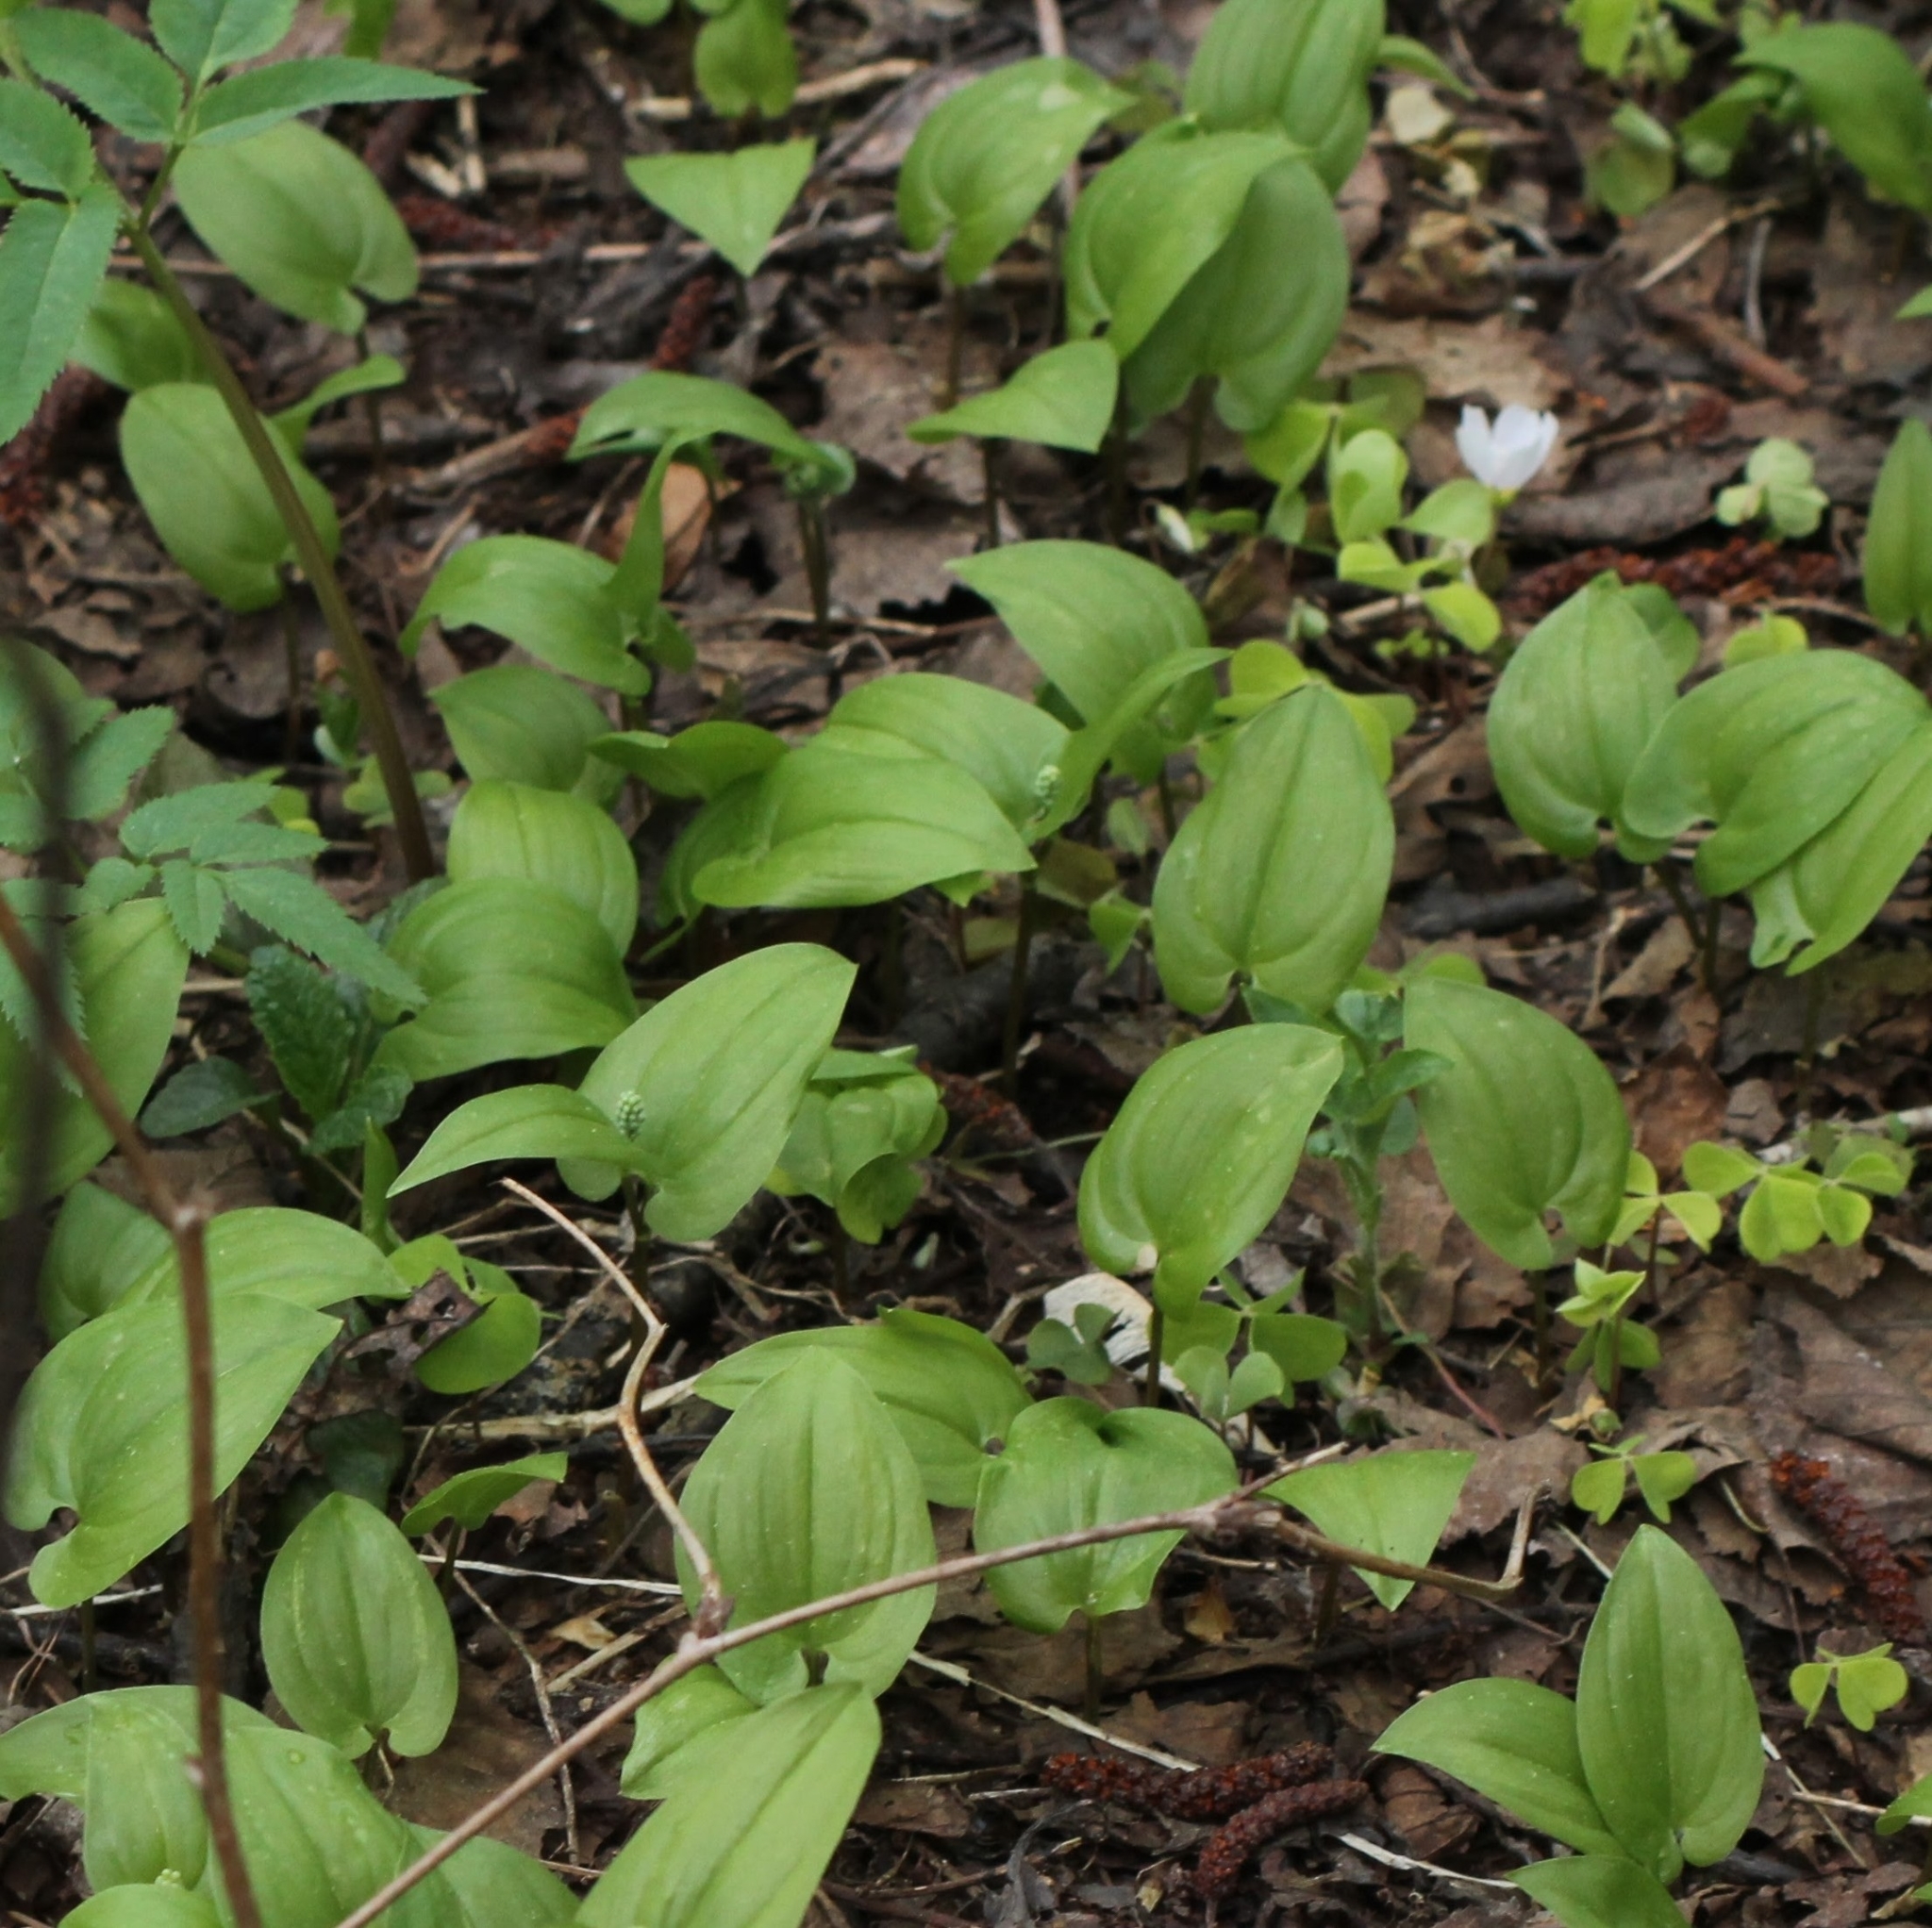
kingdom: Plantae
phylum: Tracheophyta
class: Liliopsida
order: Asparagales
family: Asparagaceae
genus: Maianthemum
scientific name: Maianthemum bifolium
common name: May lily
